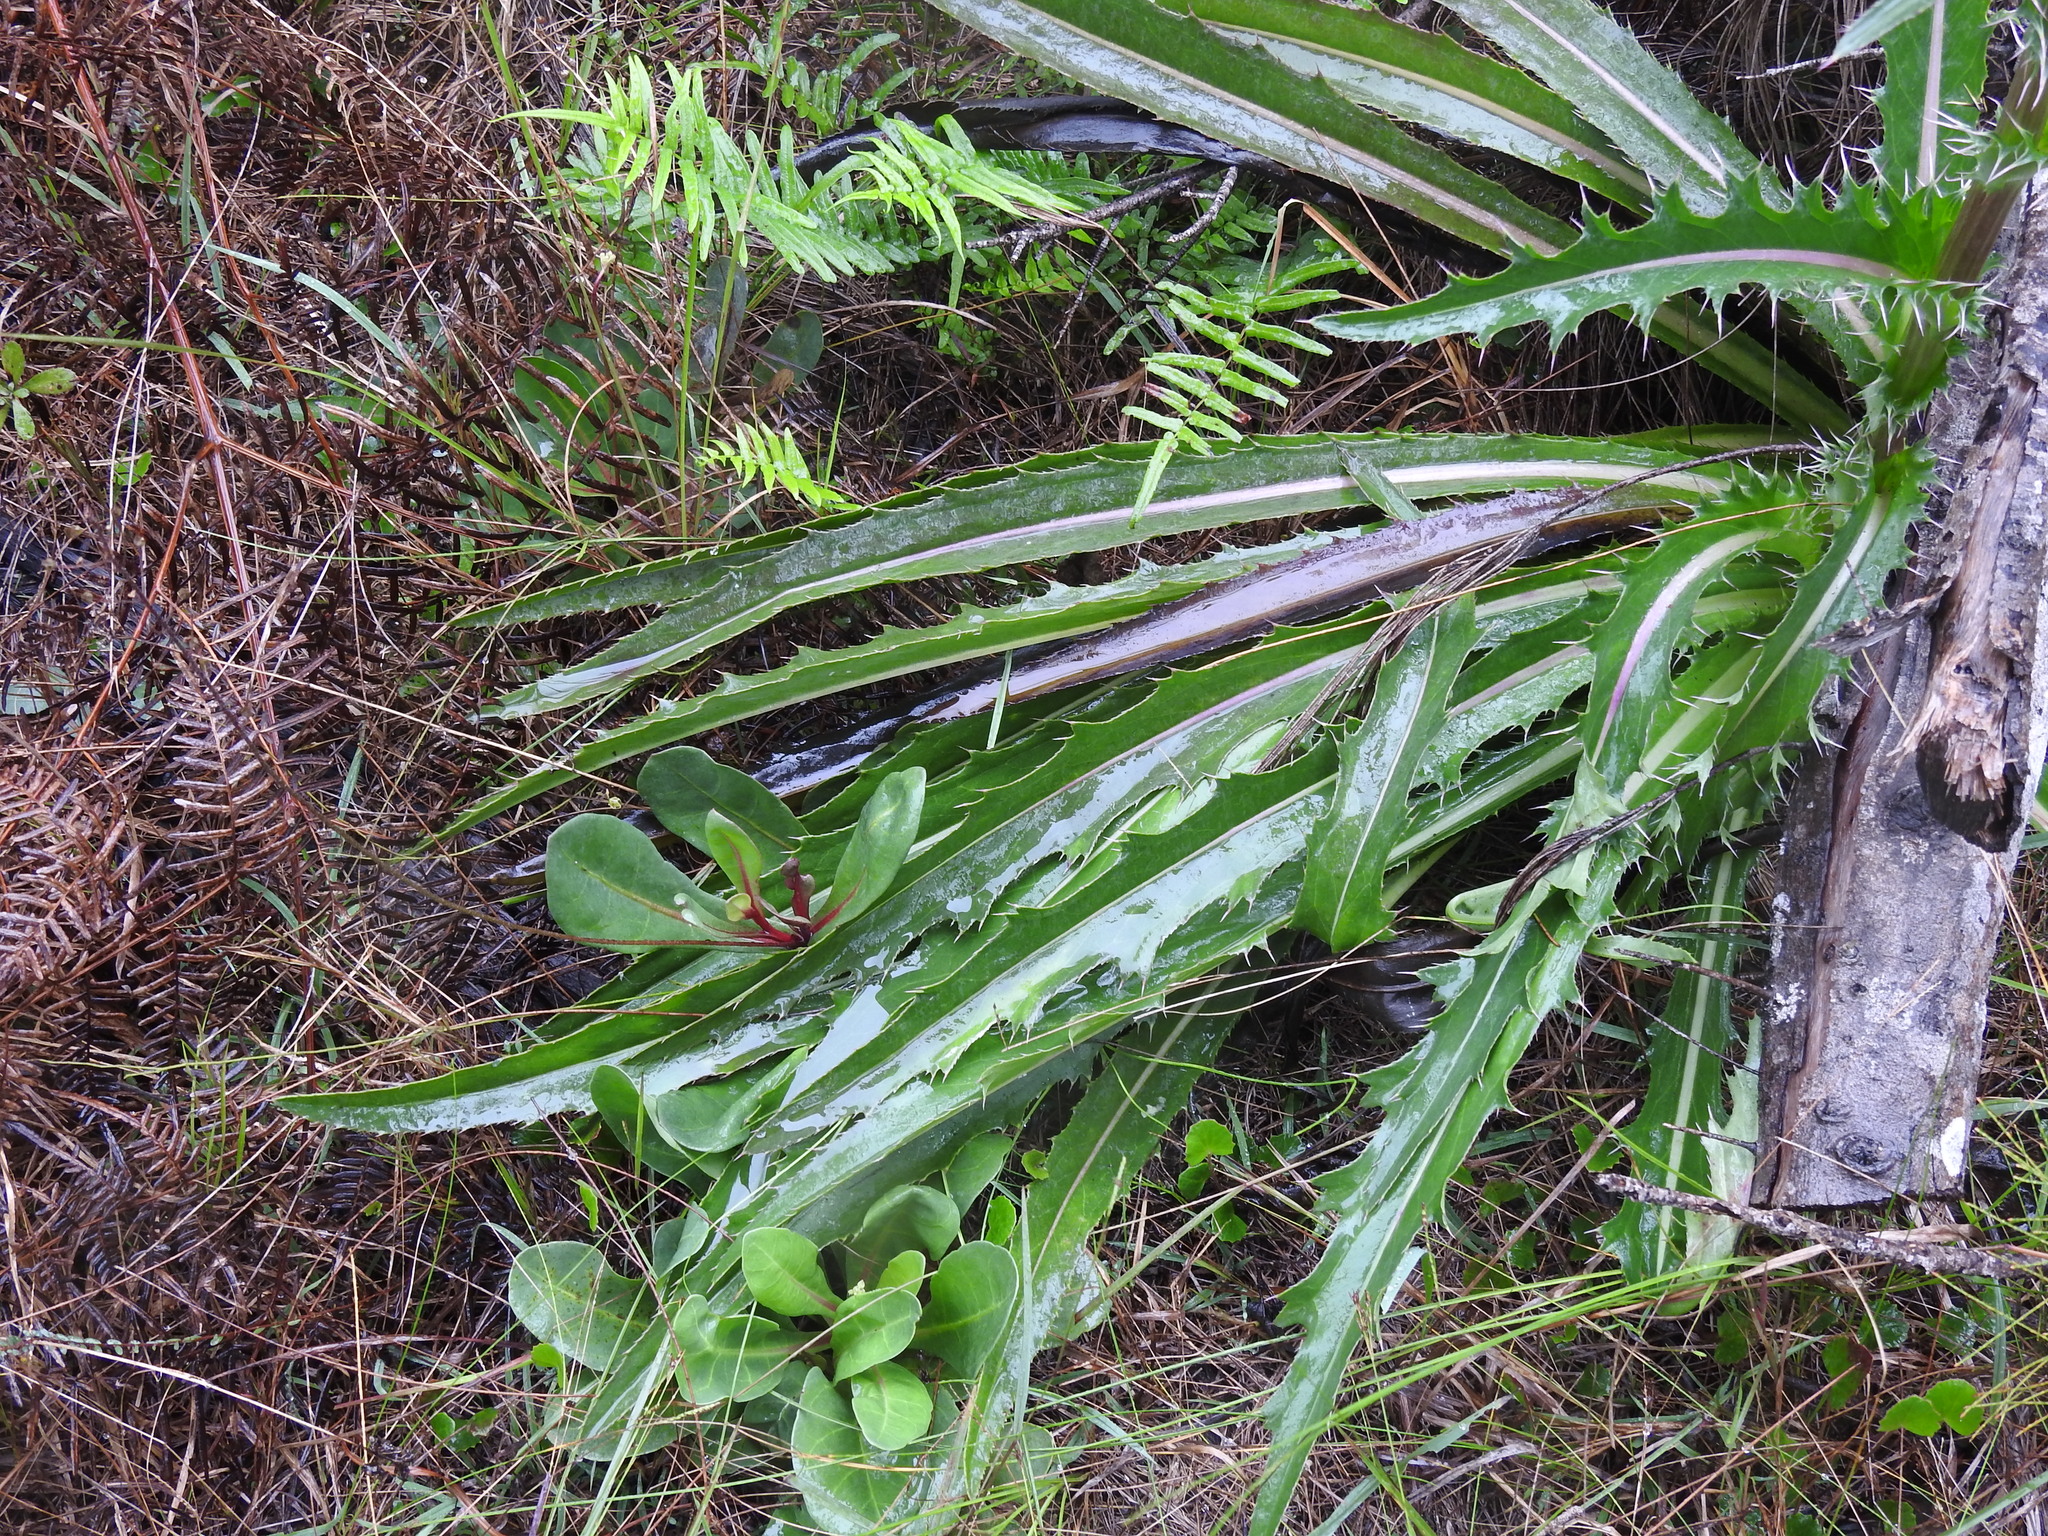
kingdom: Plantae
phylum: Tracheophyta
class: Magnoliopsida
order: Asterales
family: Asteraceae
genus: Cirsium
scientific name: Cirsium horridulum
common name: Bristly thistle
